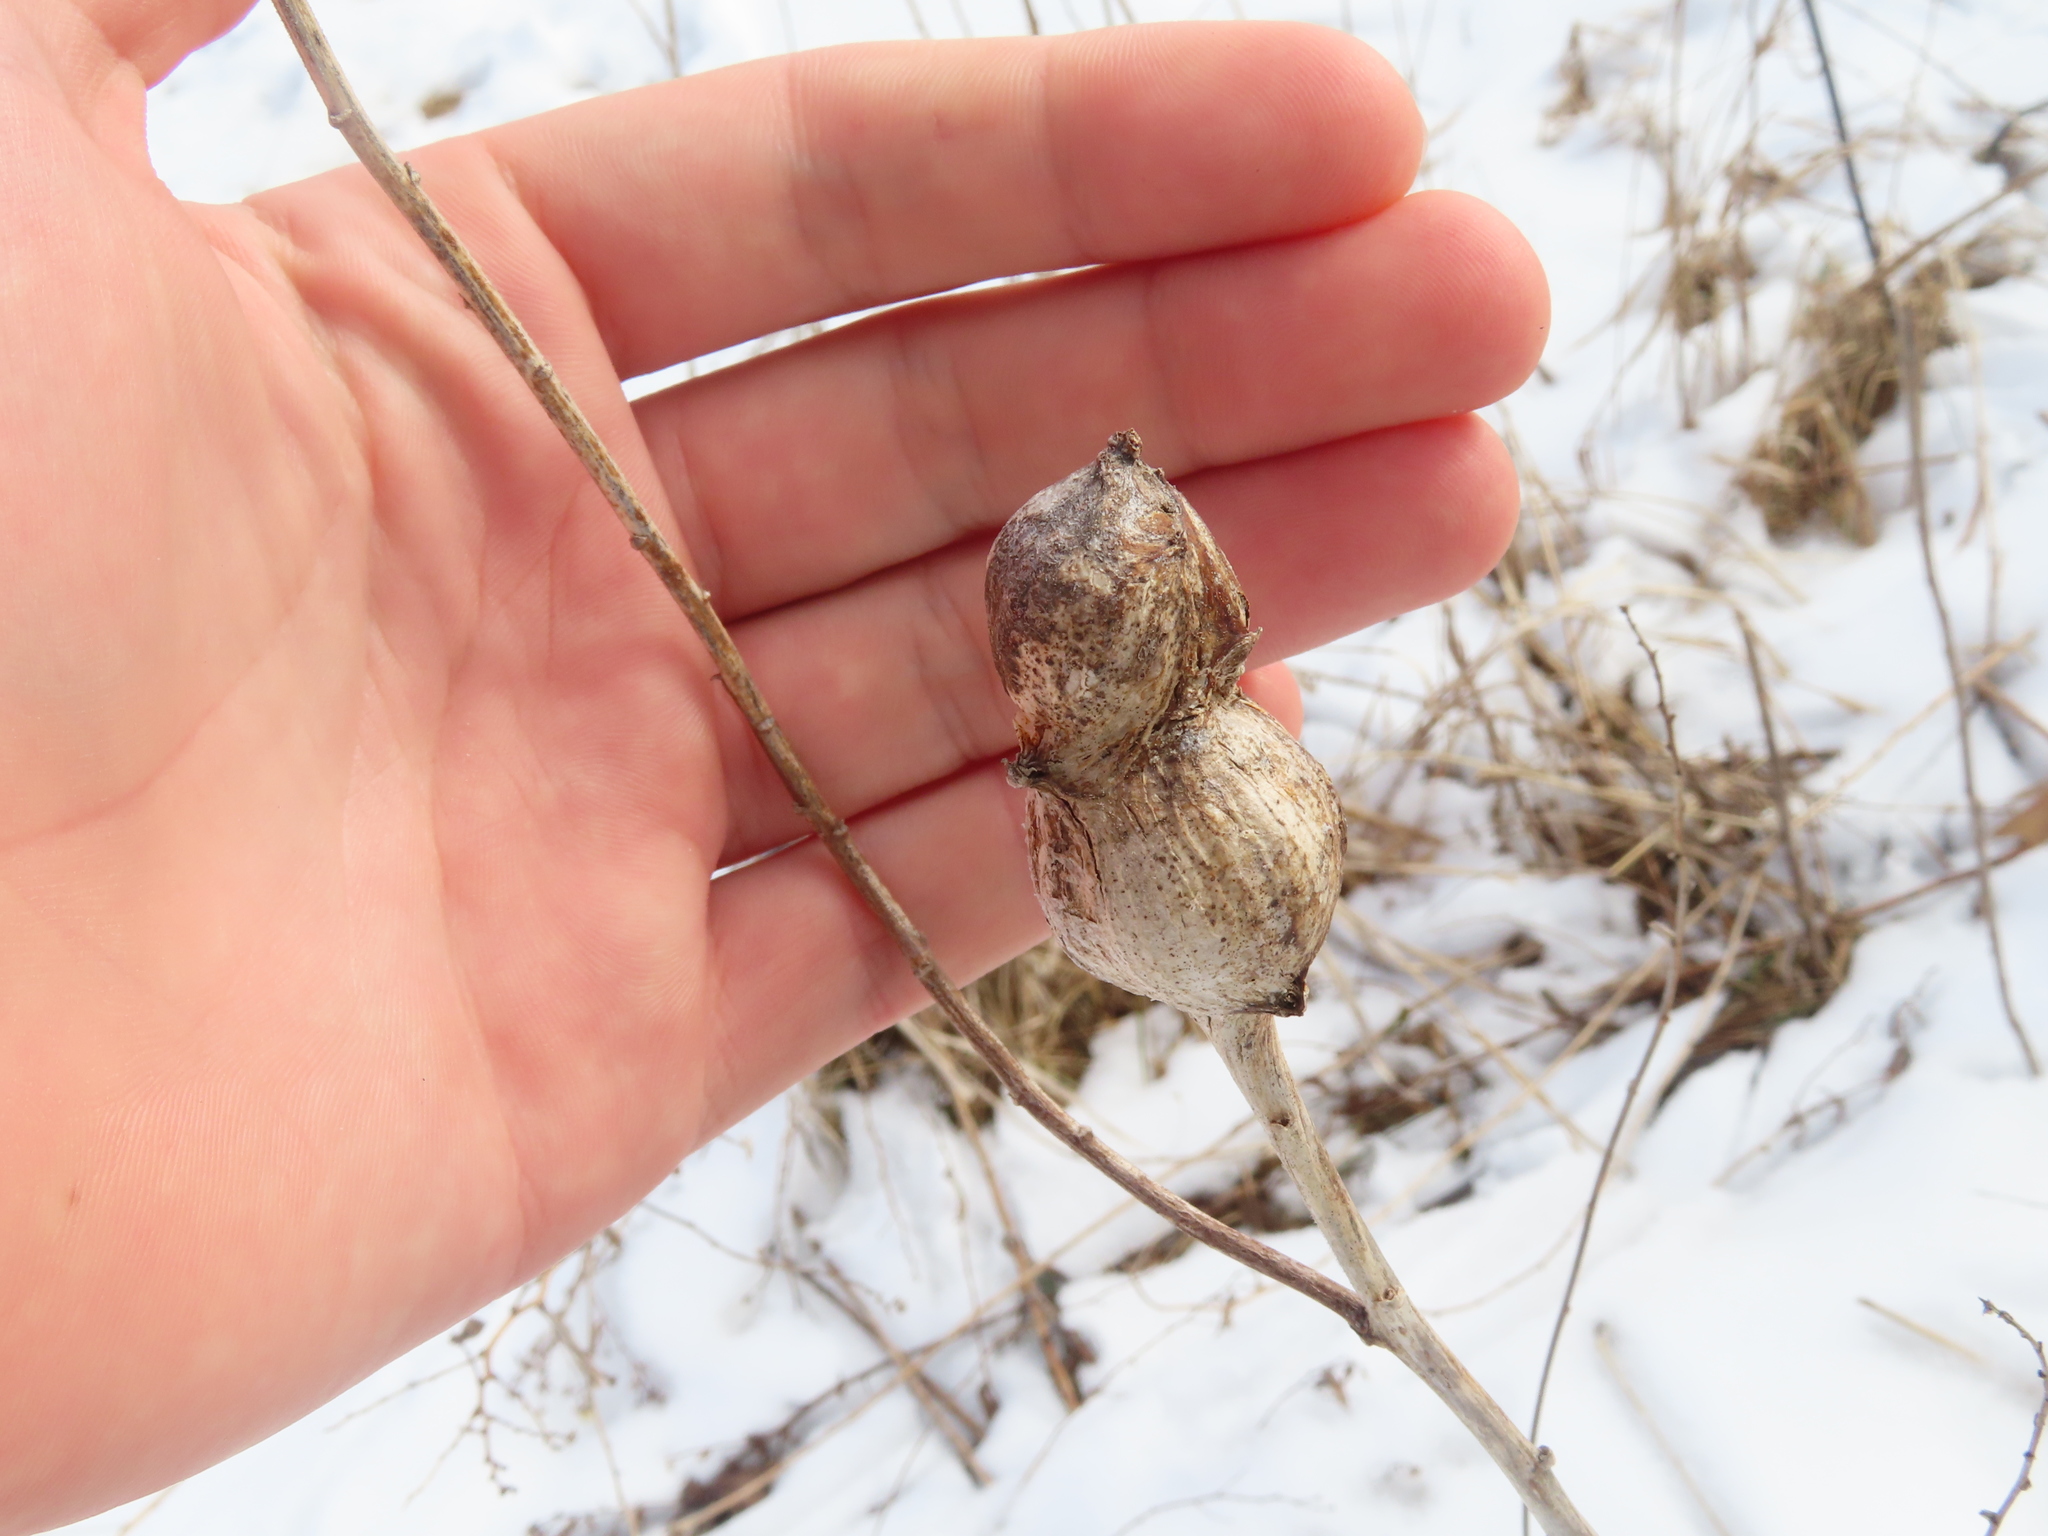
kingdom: Animalia
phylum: Arthropoda
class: Insecta
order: Diptera
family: Tephritidae
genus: Eurosta
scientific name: Eurosta solidaginis
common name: Goldenrod gall fly
